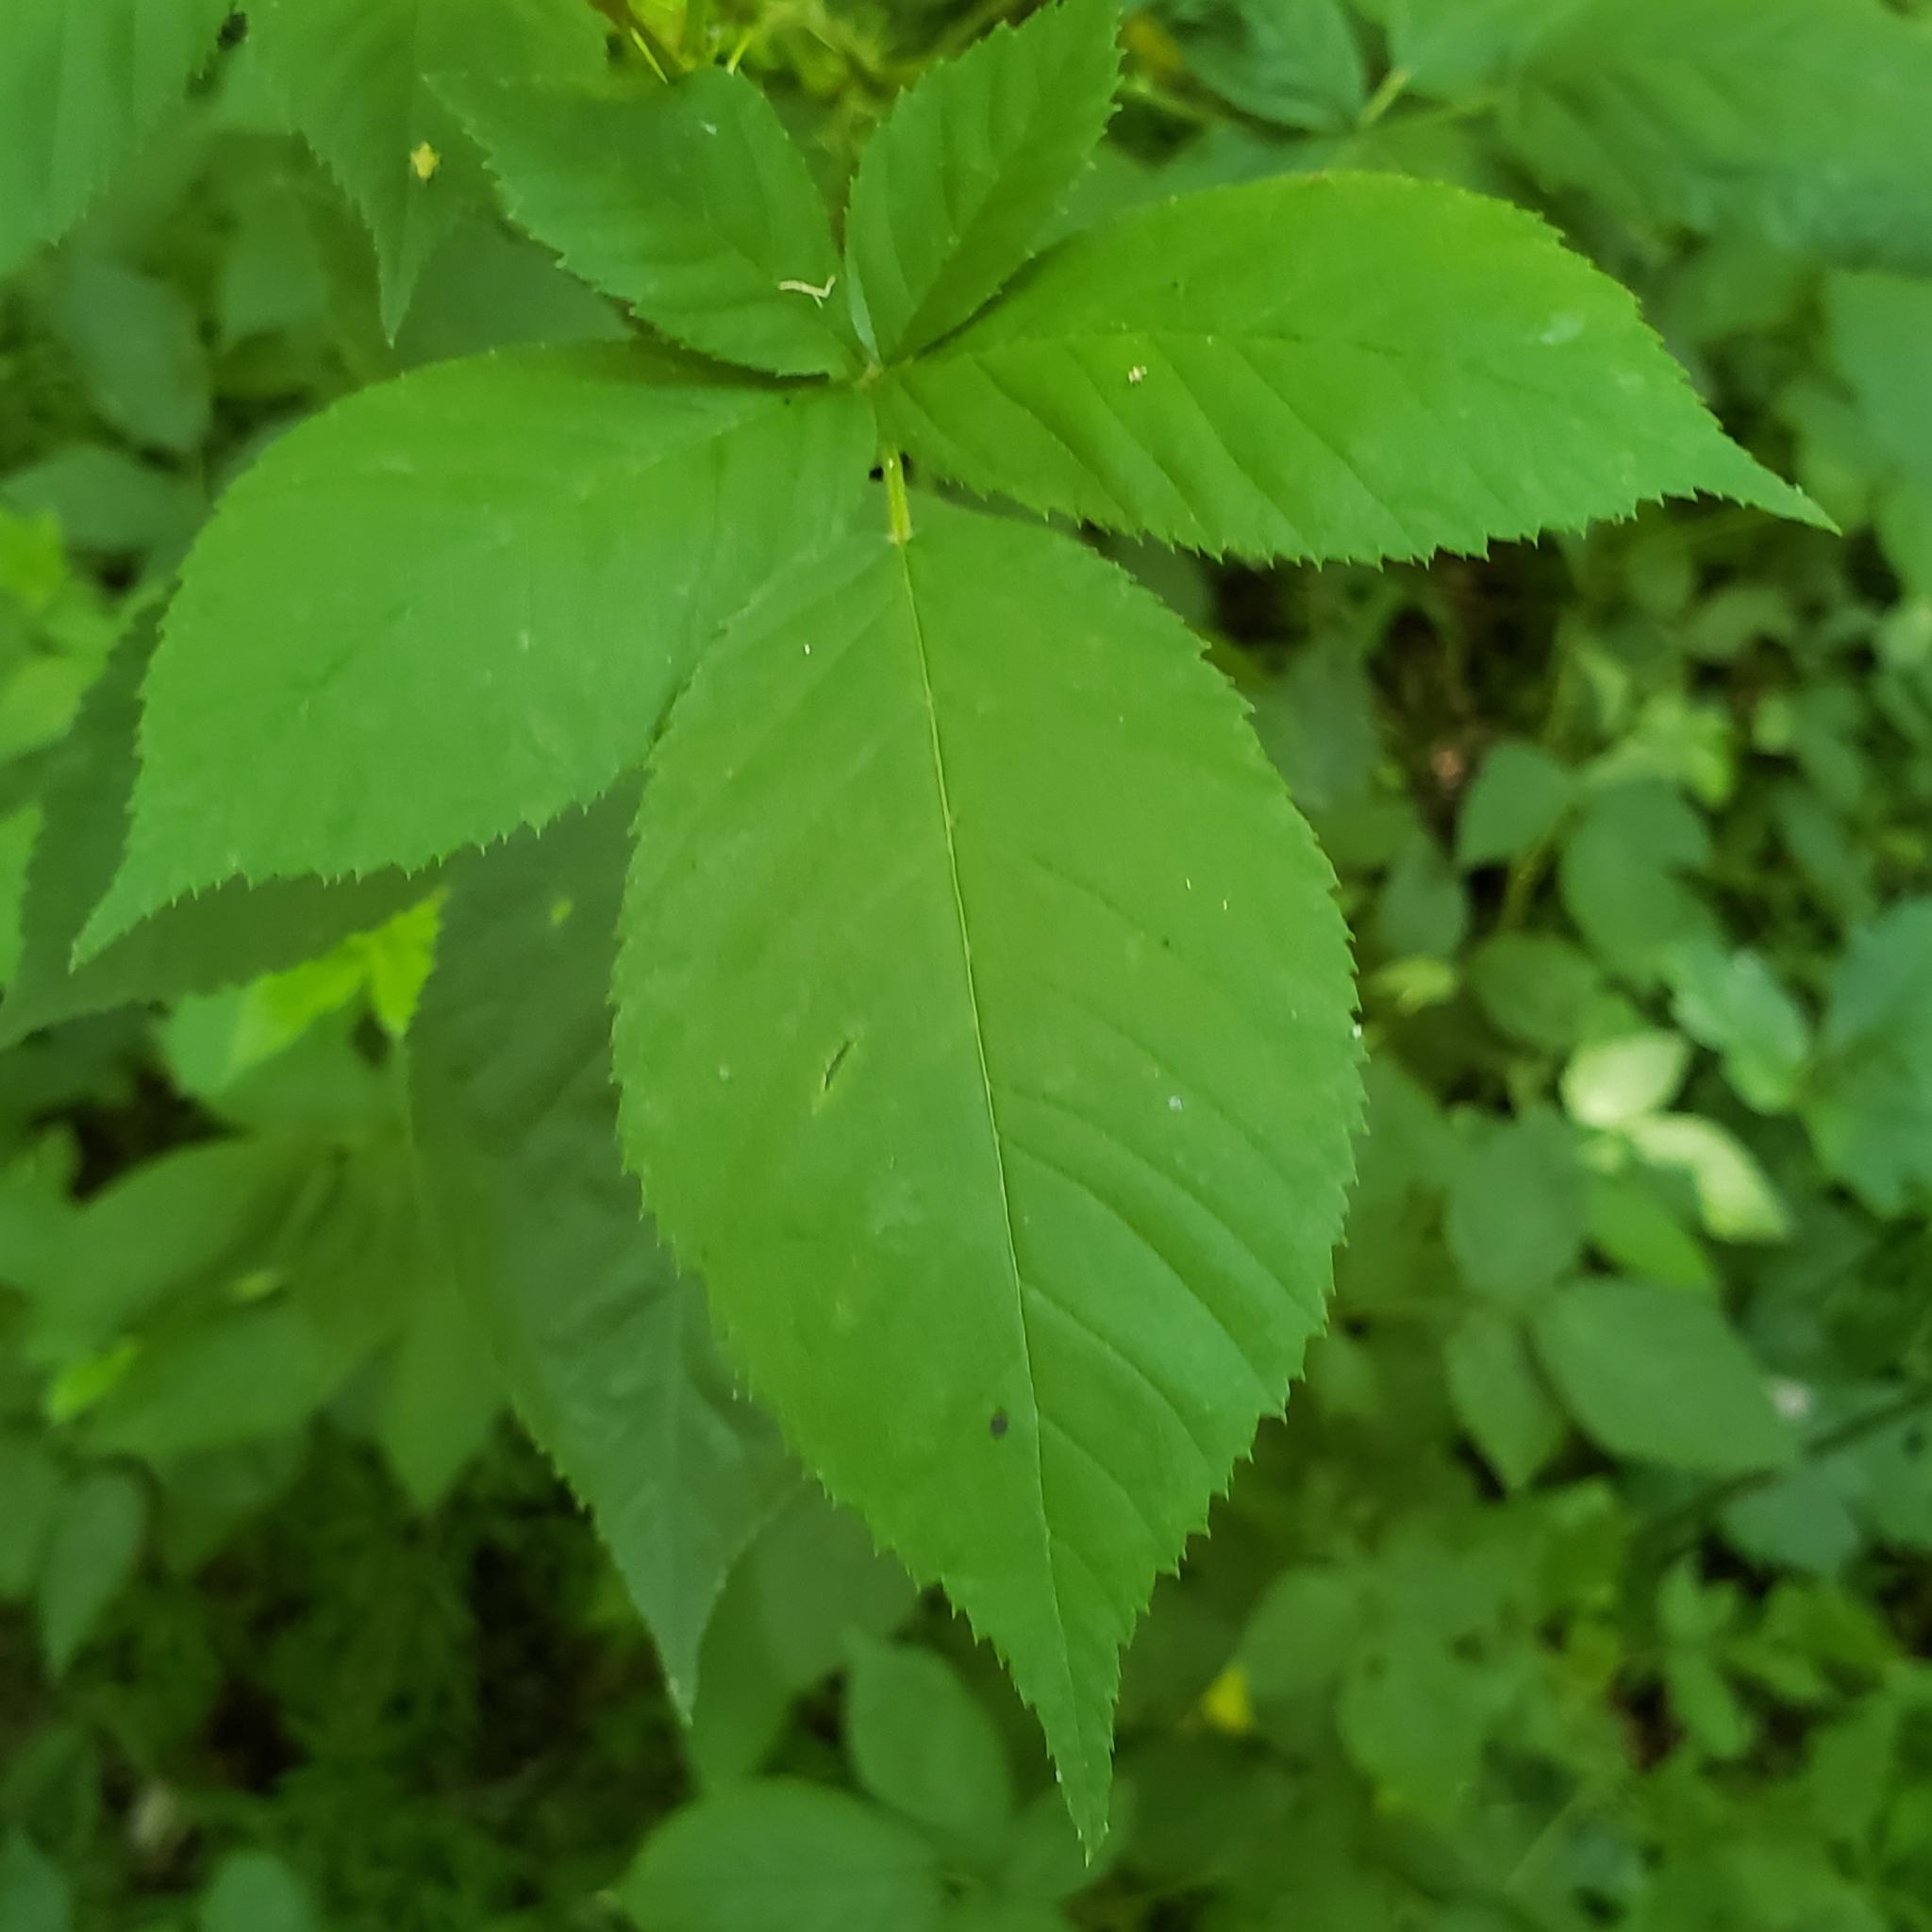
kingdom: Animalia
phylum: Arthropoda
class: Insecta
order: Hymenoptera
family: Cynipidae
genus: Diastrophus
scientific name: Diastrophus
